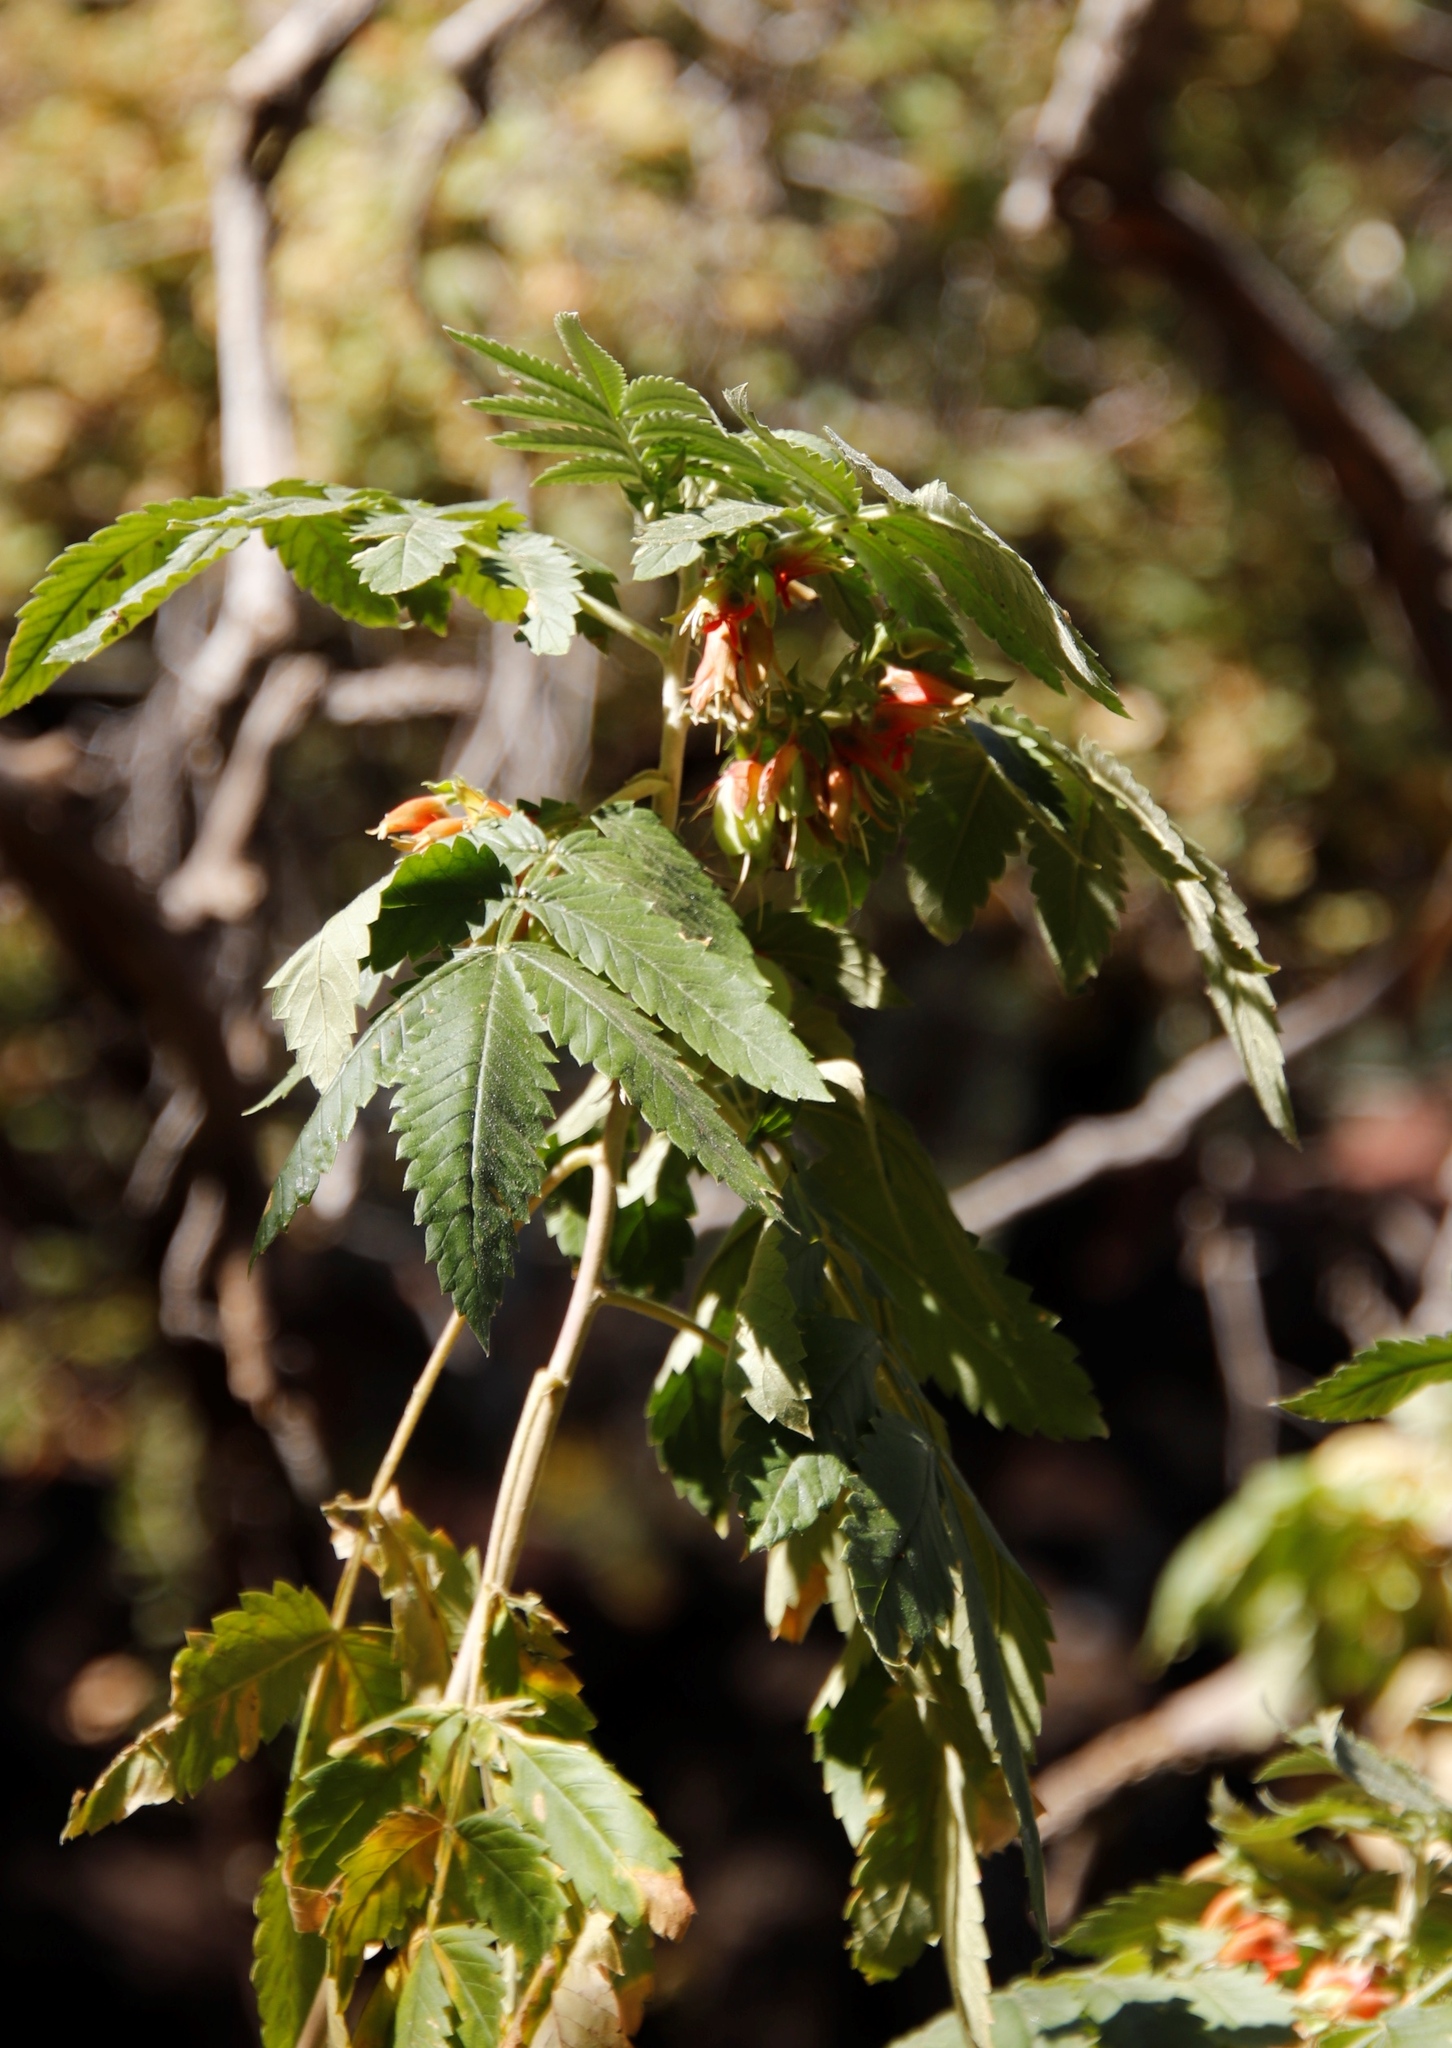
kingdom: Plantae
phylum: Tracheophyta
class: Magnoliopsida
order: Geraniales
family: Melianthaceae
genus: Melianthus
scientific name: Melianthus comosus
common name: Touch-me-not
